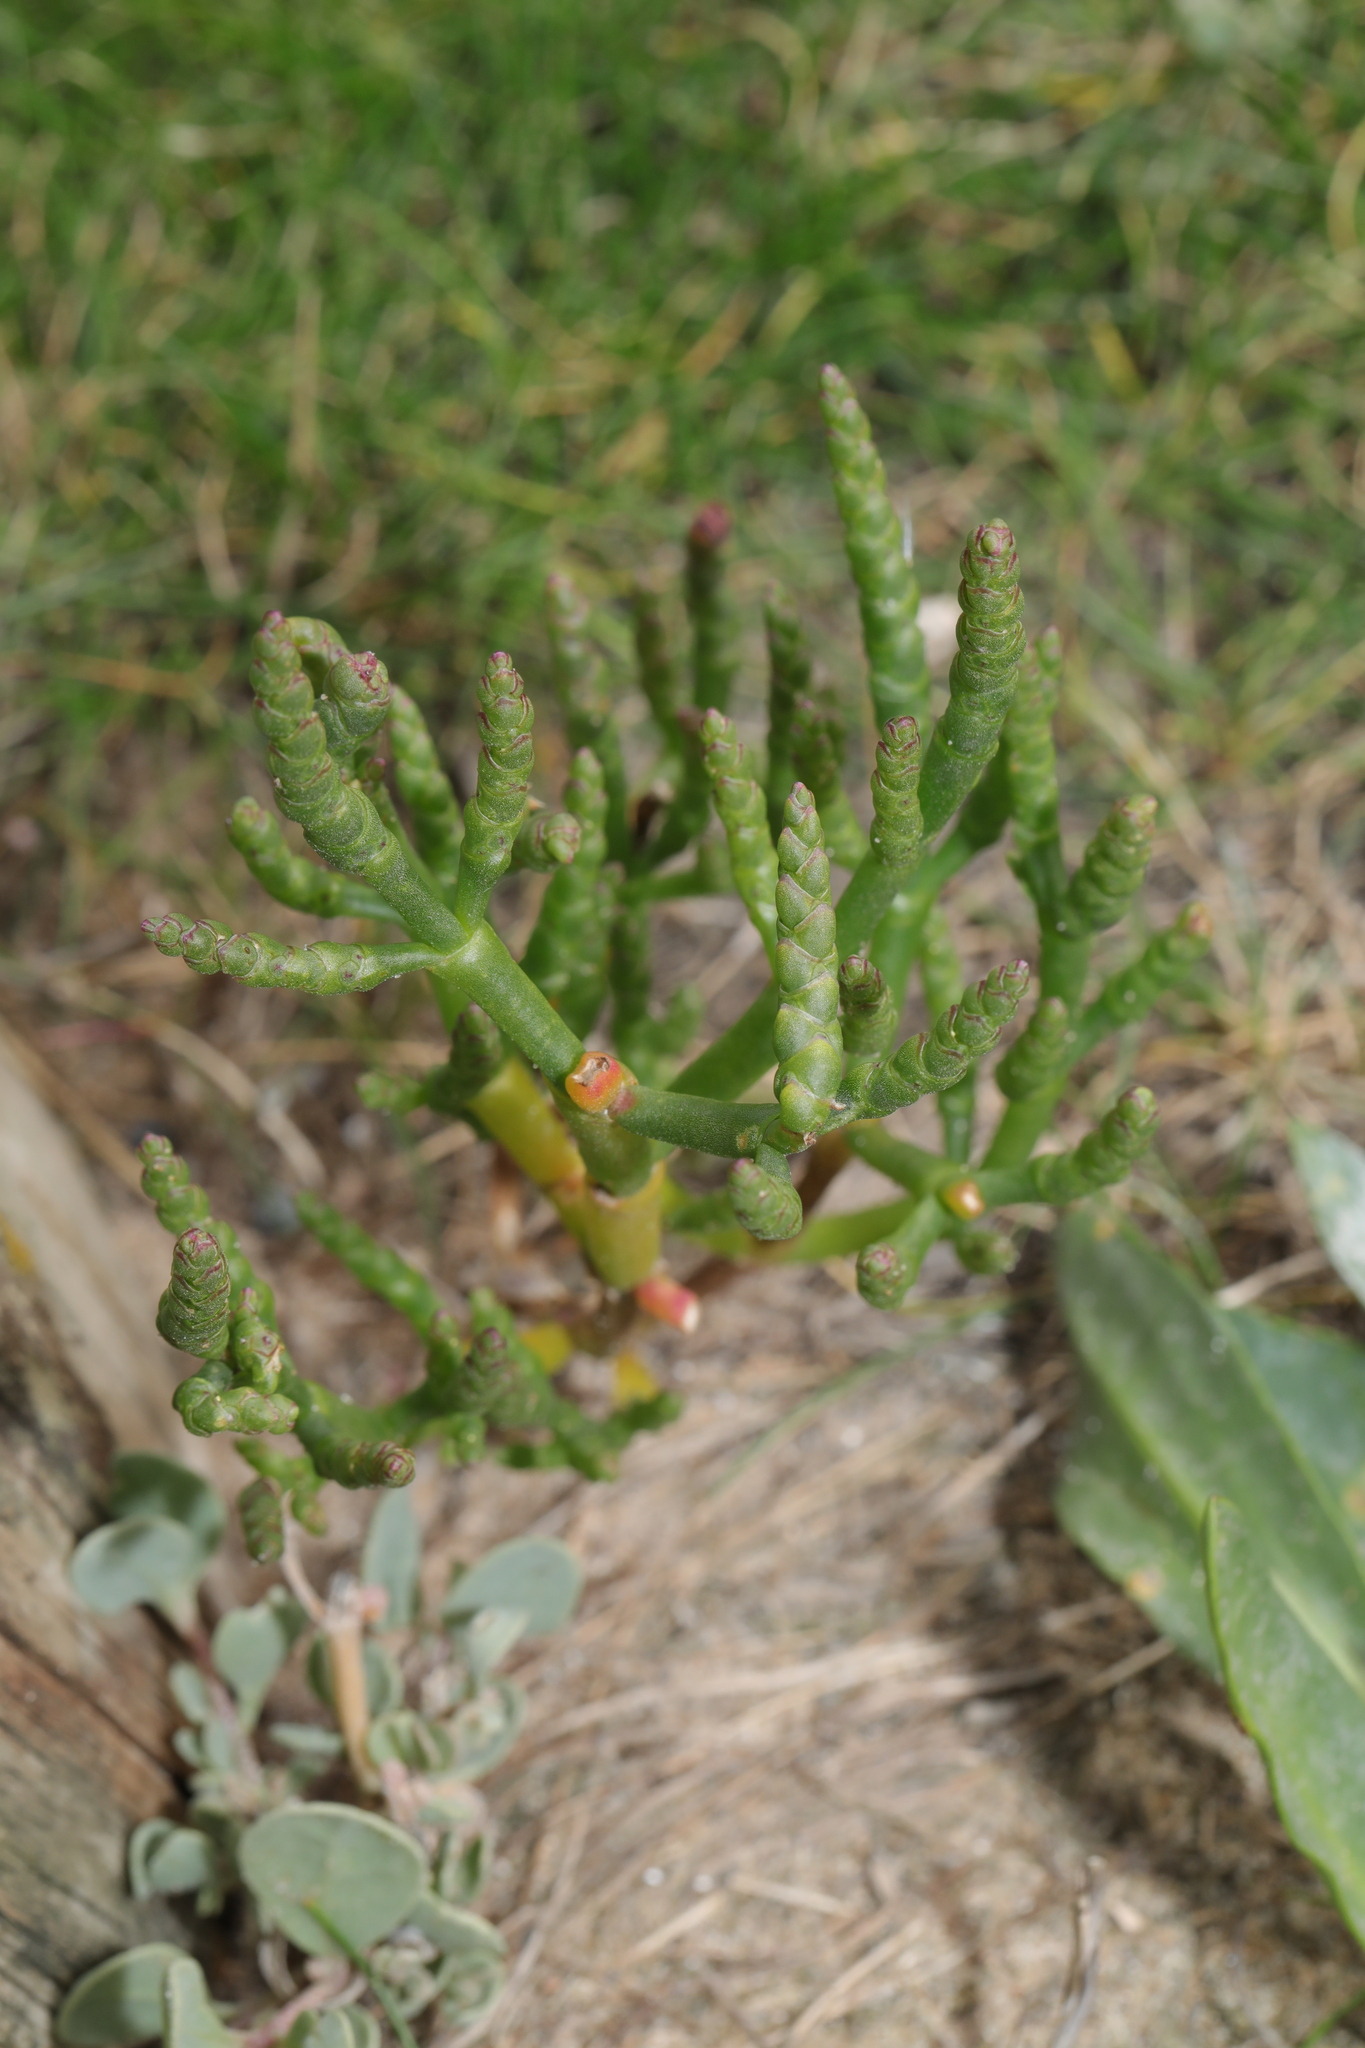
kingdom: Plantae
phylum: Tracheophyta
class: Magnoliopsida
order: Caryophyllales
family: Amaranthaceae
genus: Salicornia
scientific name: Salicornia europaea
